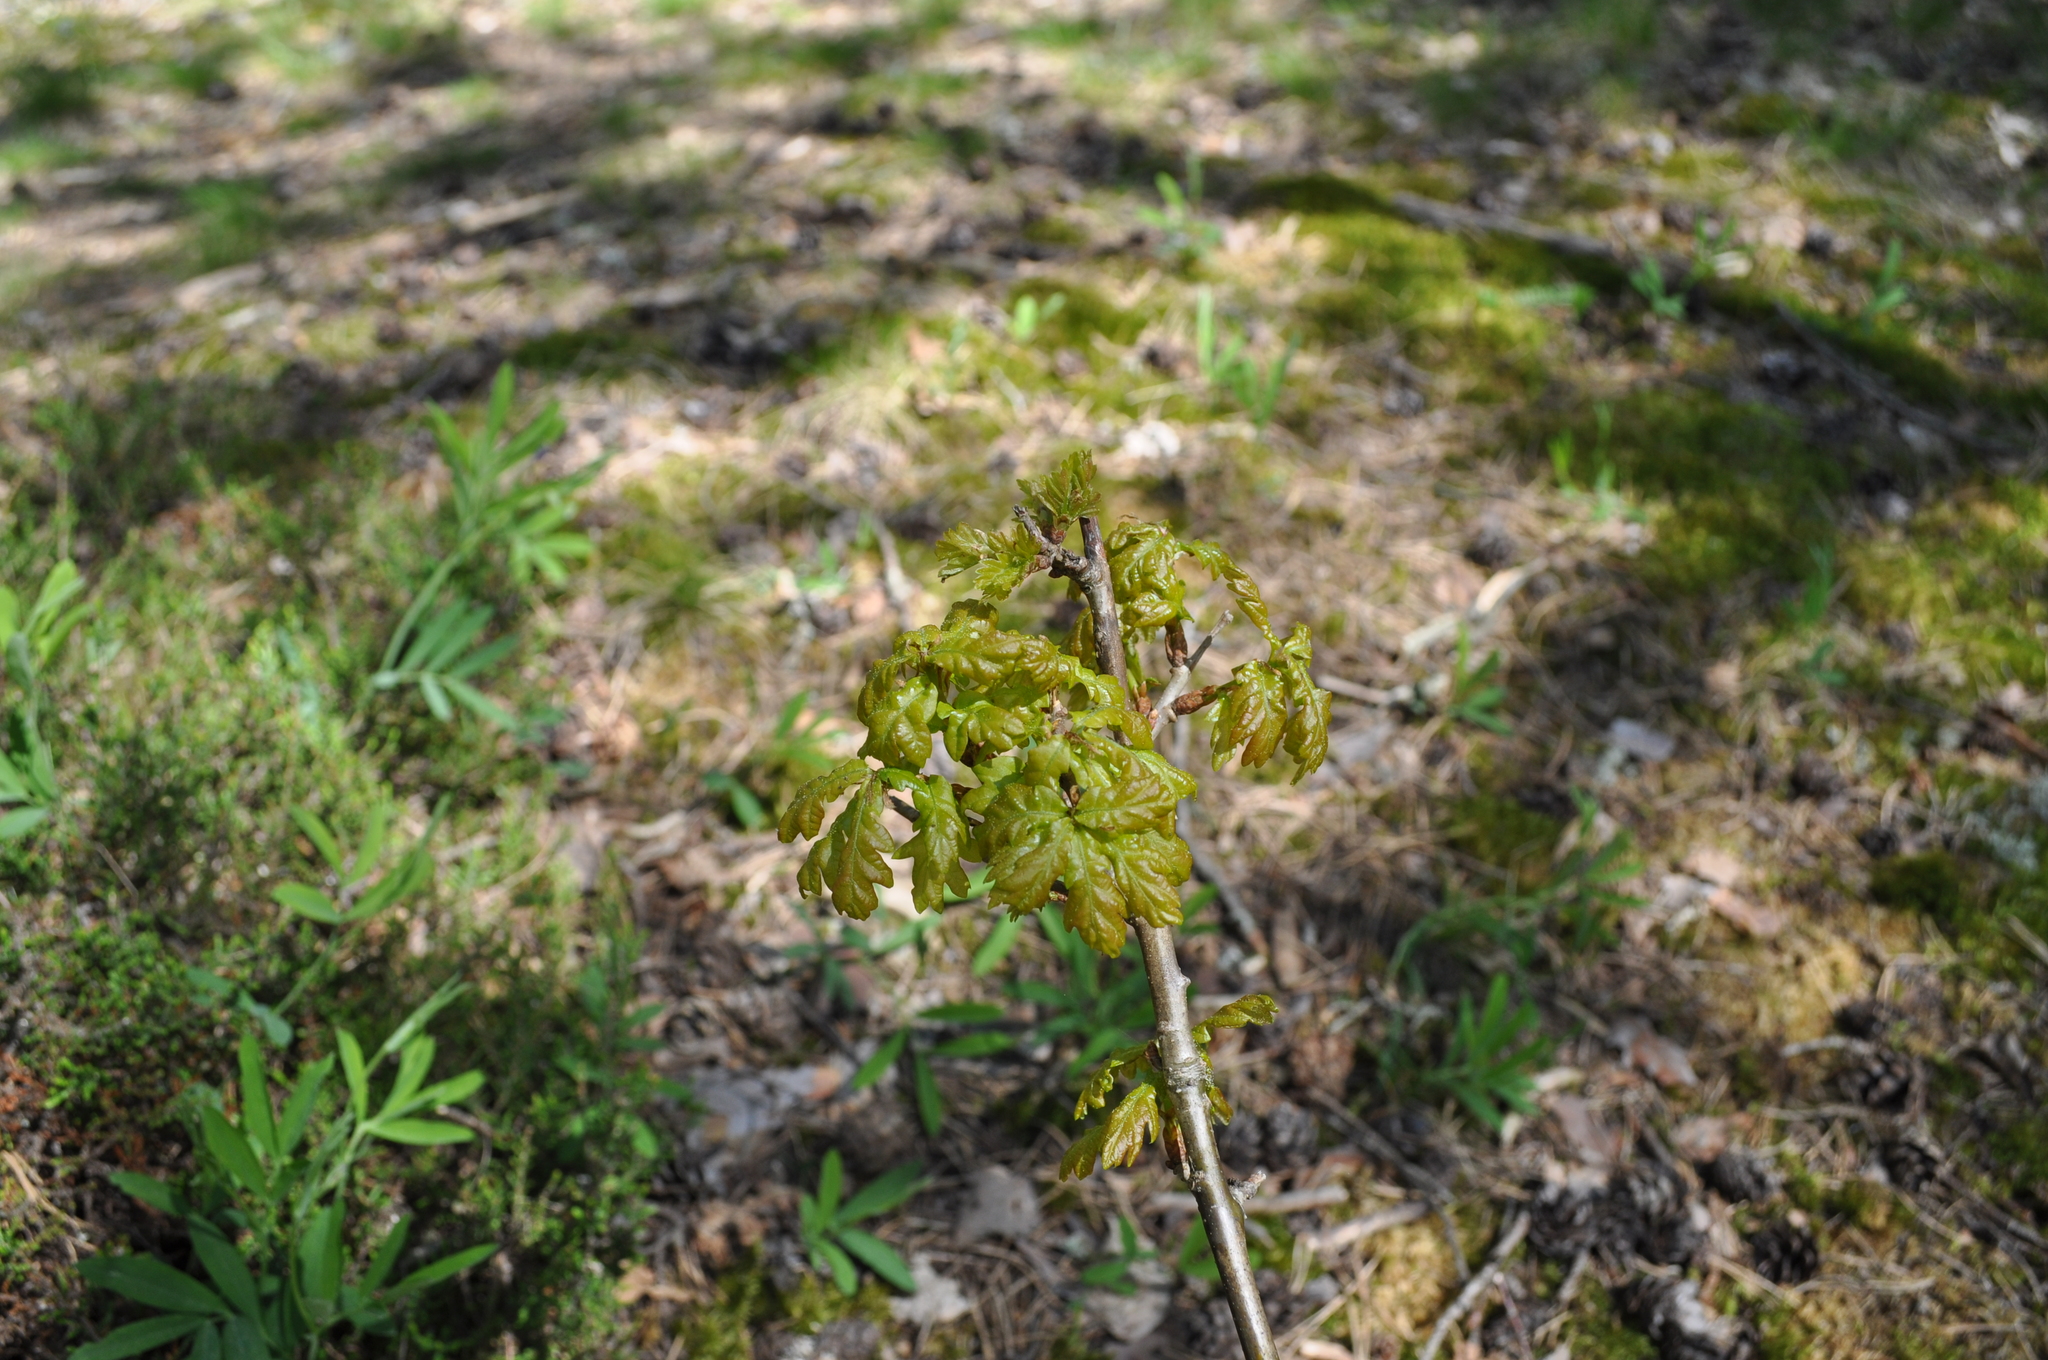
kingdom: Plantae
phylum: Tracheophyta
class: Magnoliopsida
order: Fagales
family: Fagaceae
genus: Quercus
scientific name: Quercus robur
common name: Pedunculate oak
